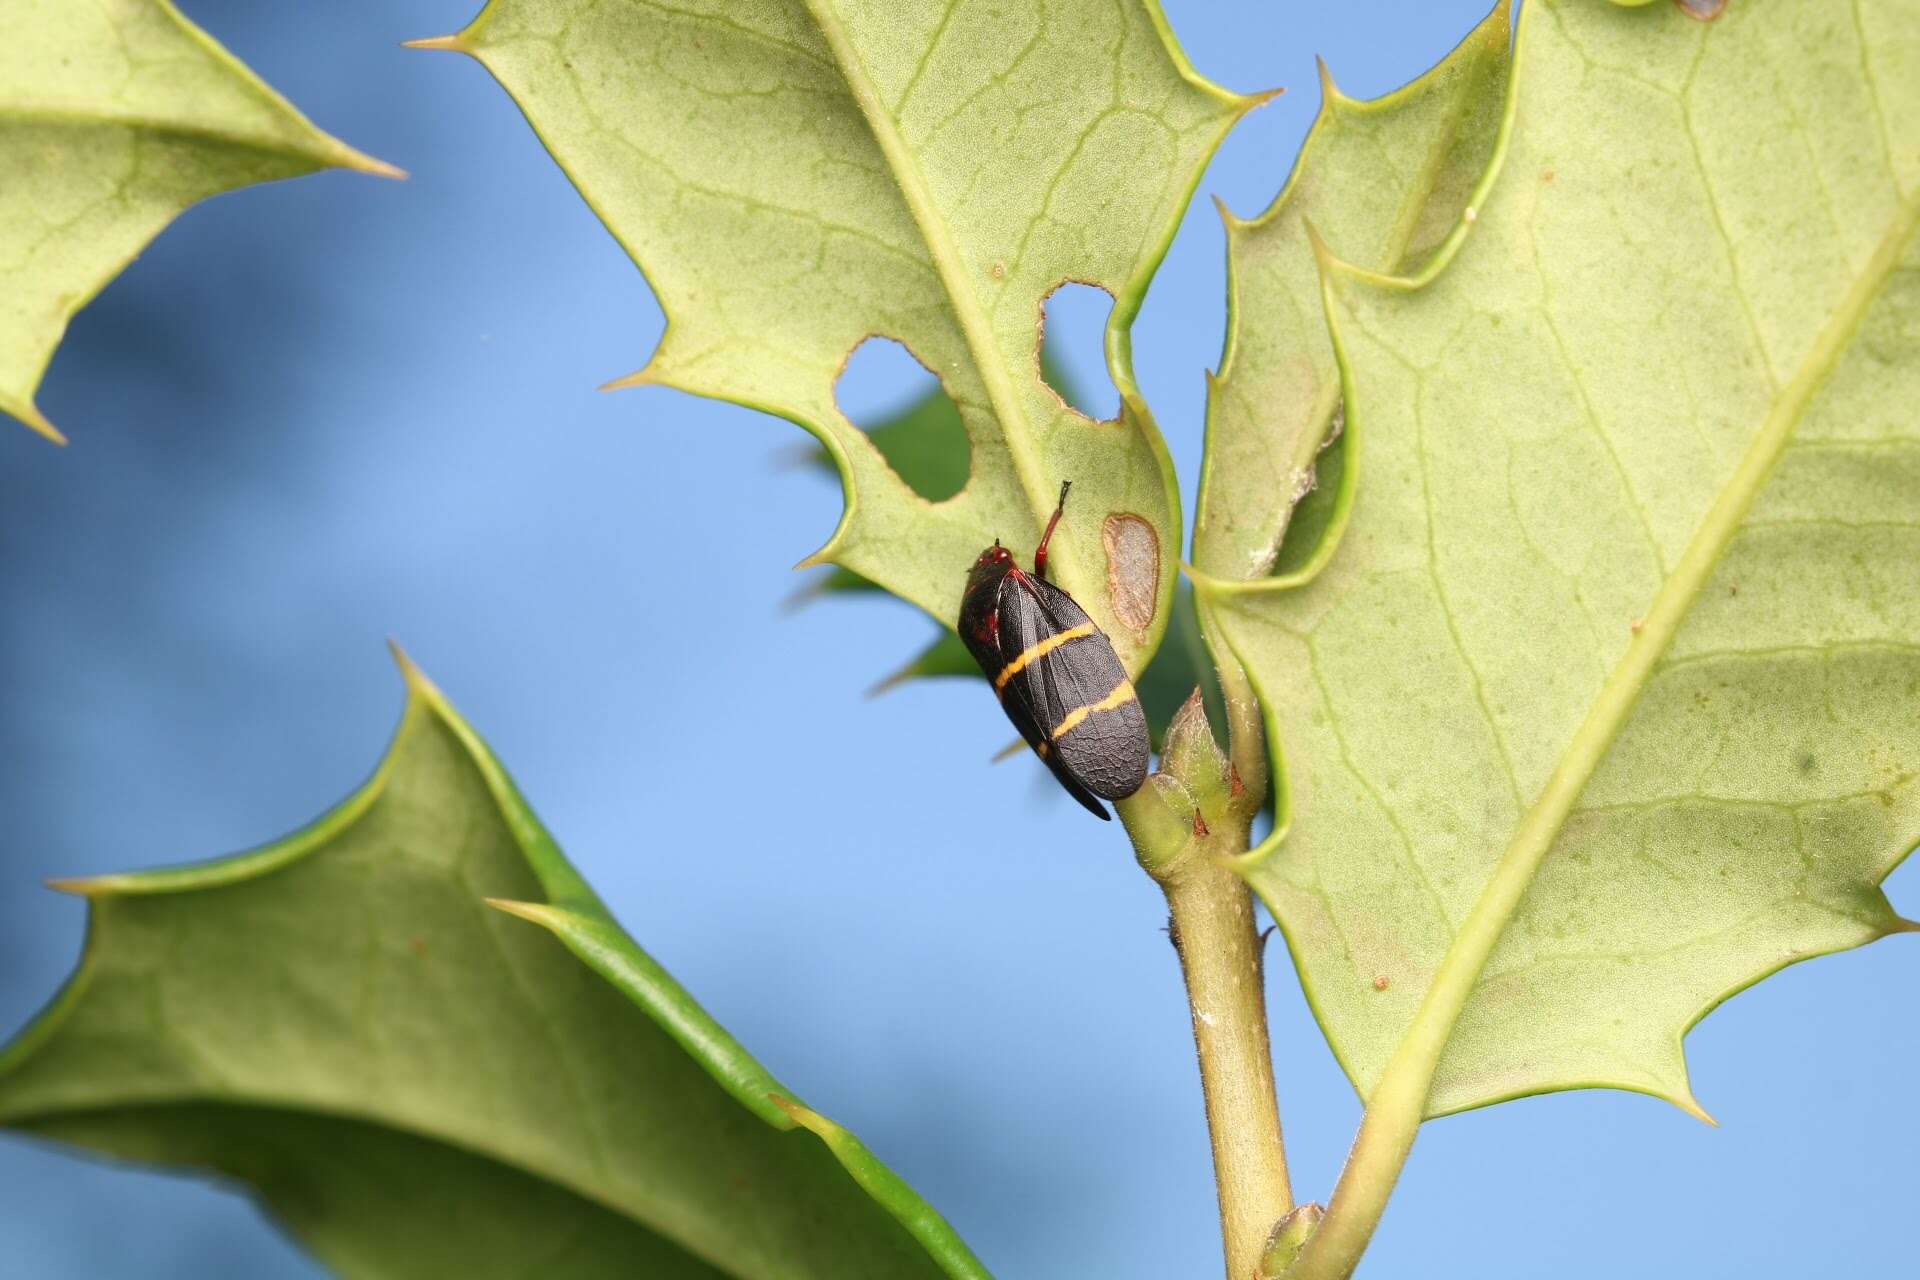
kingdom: Animalia
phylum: Arthropoda
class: Insecta
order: Hemiptera
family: Cercopidae
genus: Prosapia
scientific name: Prosapia bicincta
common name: Twolined spittlebug
